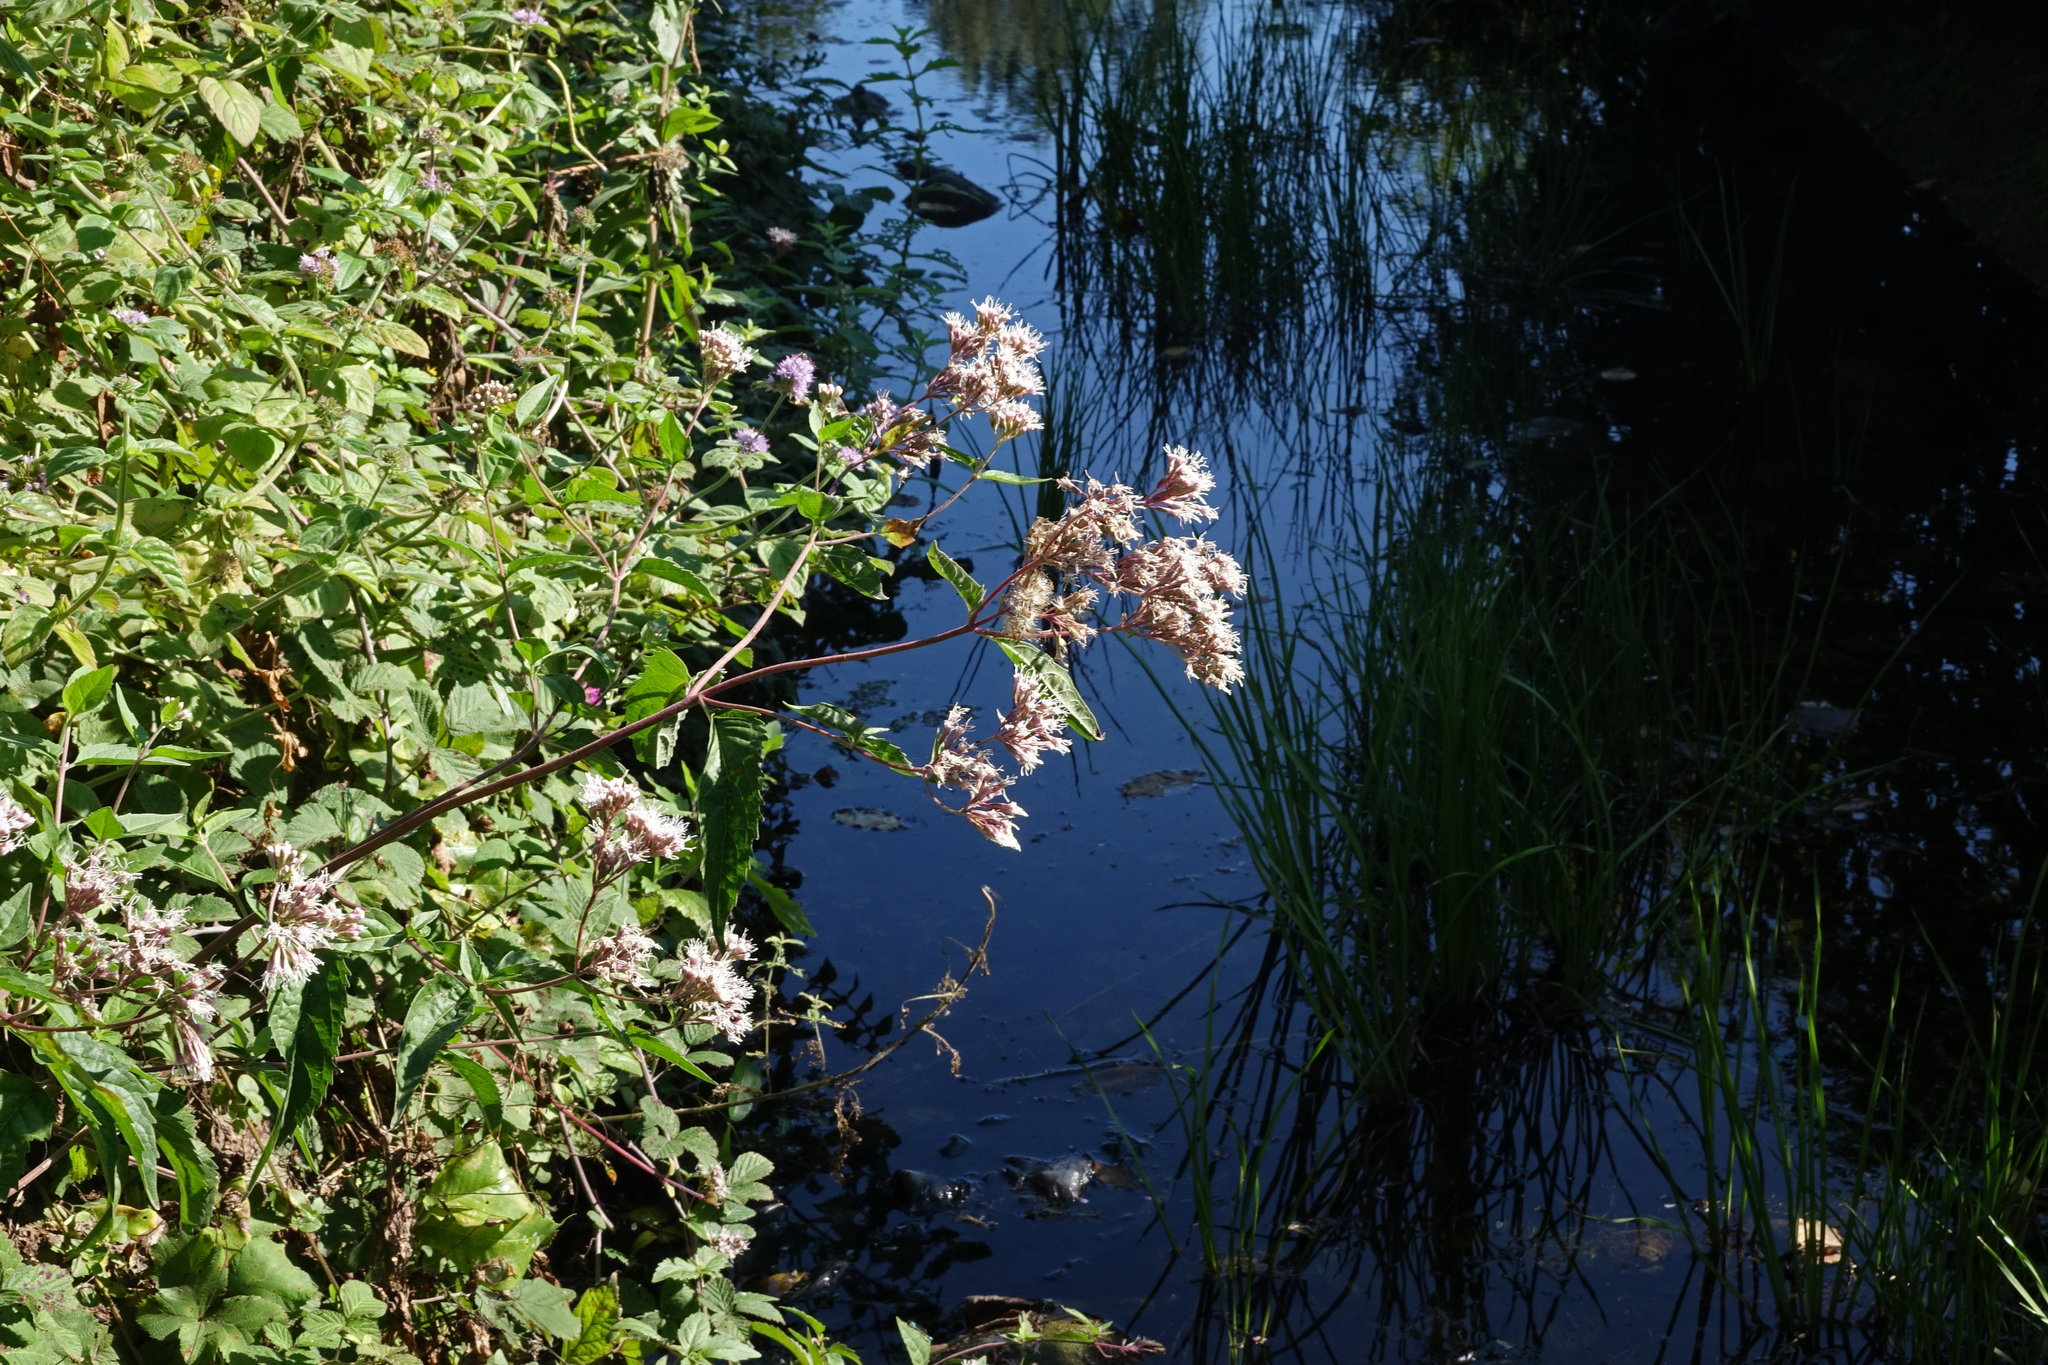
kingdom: Plantae
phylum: Tracheophyta
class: Magnoliopsida
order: Asterales
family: Asteraceae
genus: Eupatorium
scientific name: Eupatorium cannabinum
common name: Hemp-agrimony
